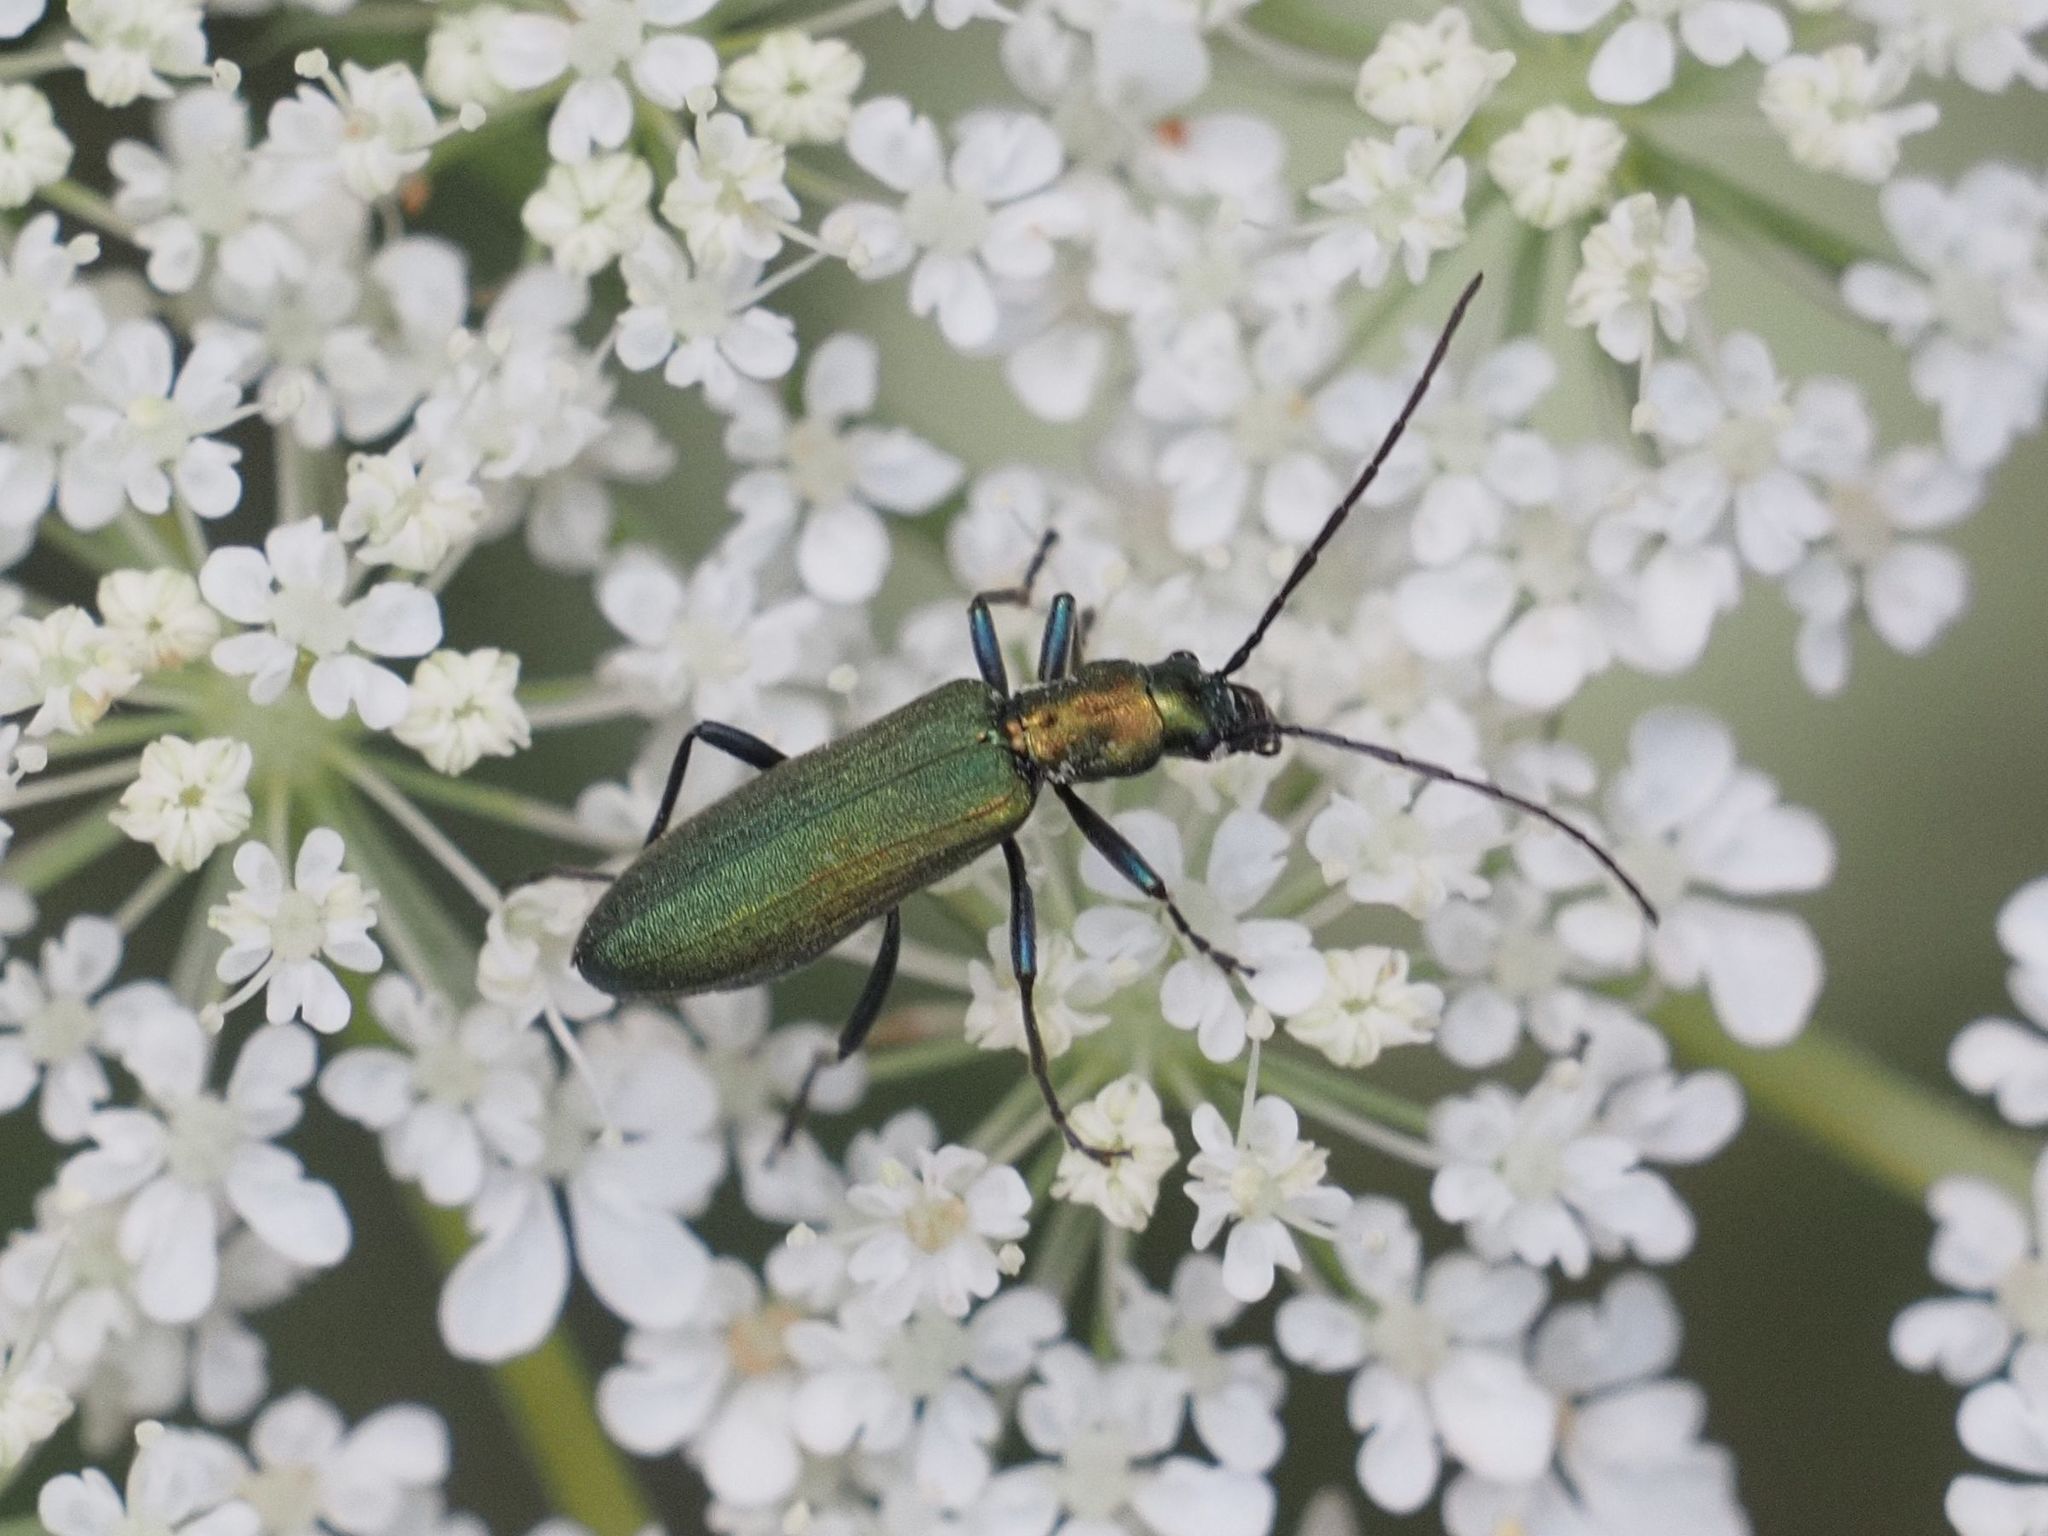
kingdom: Animalia
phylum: Arthropoda
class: Insecta
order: Coleoptera
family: Oedemeridae
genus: Chrysanthia
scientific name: Chrysanthia viridissima
